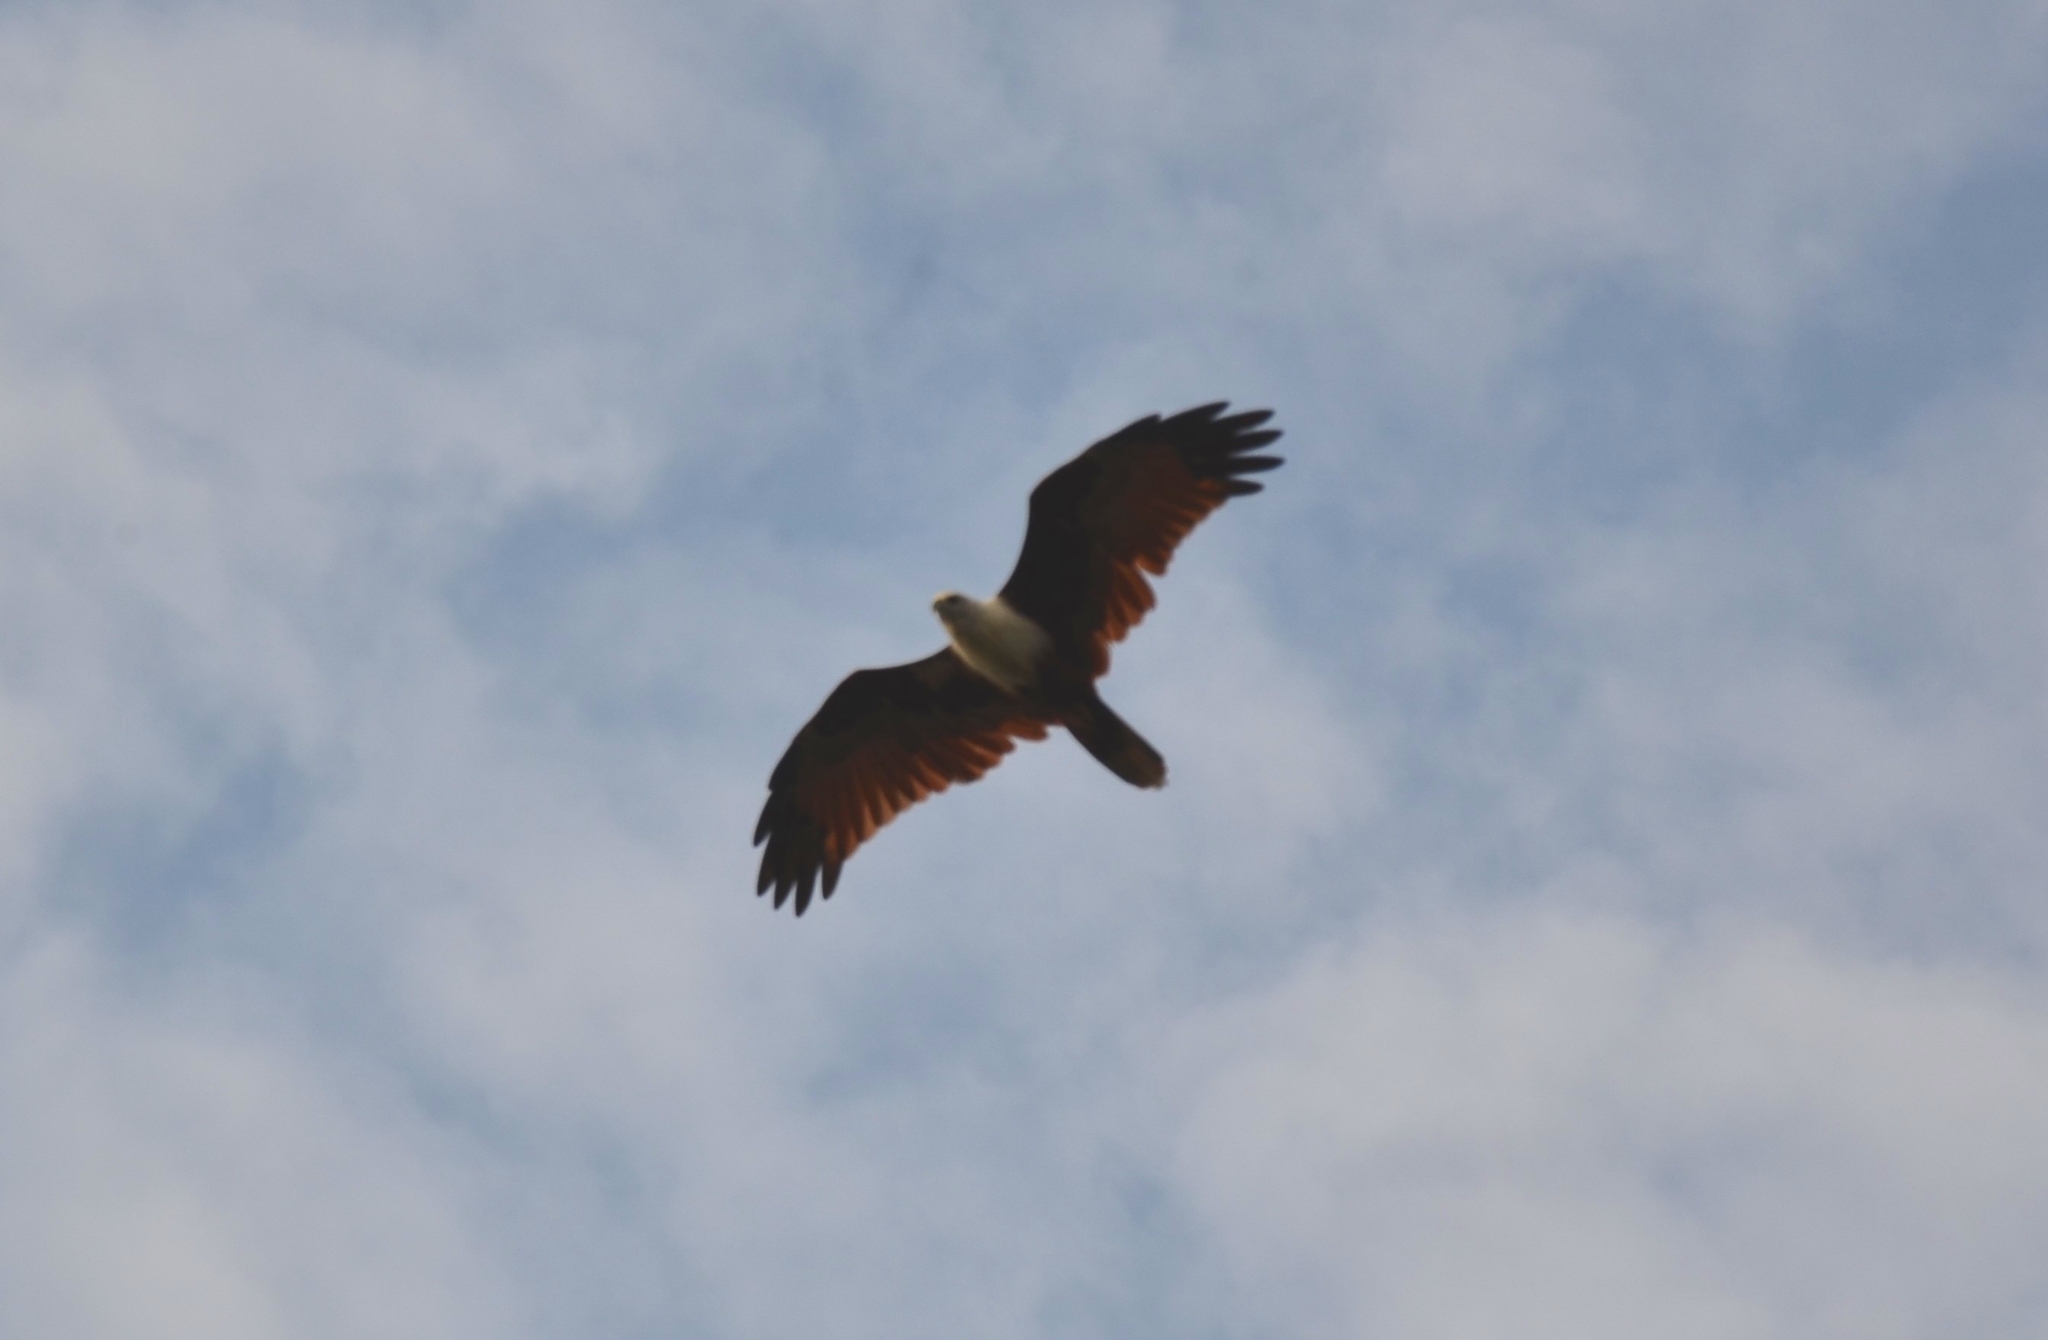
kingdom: Animalia
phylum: Chordata
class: Aves
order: Accipitriformes
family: Accipitridae
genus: Haliastur
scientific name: Haliastur indus
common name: Brahminy kite
